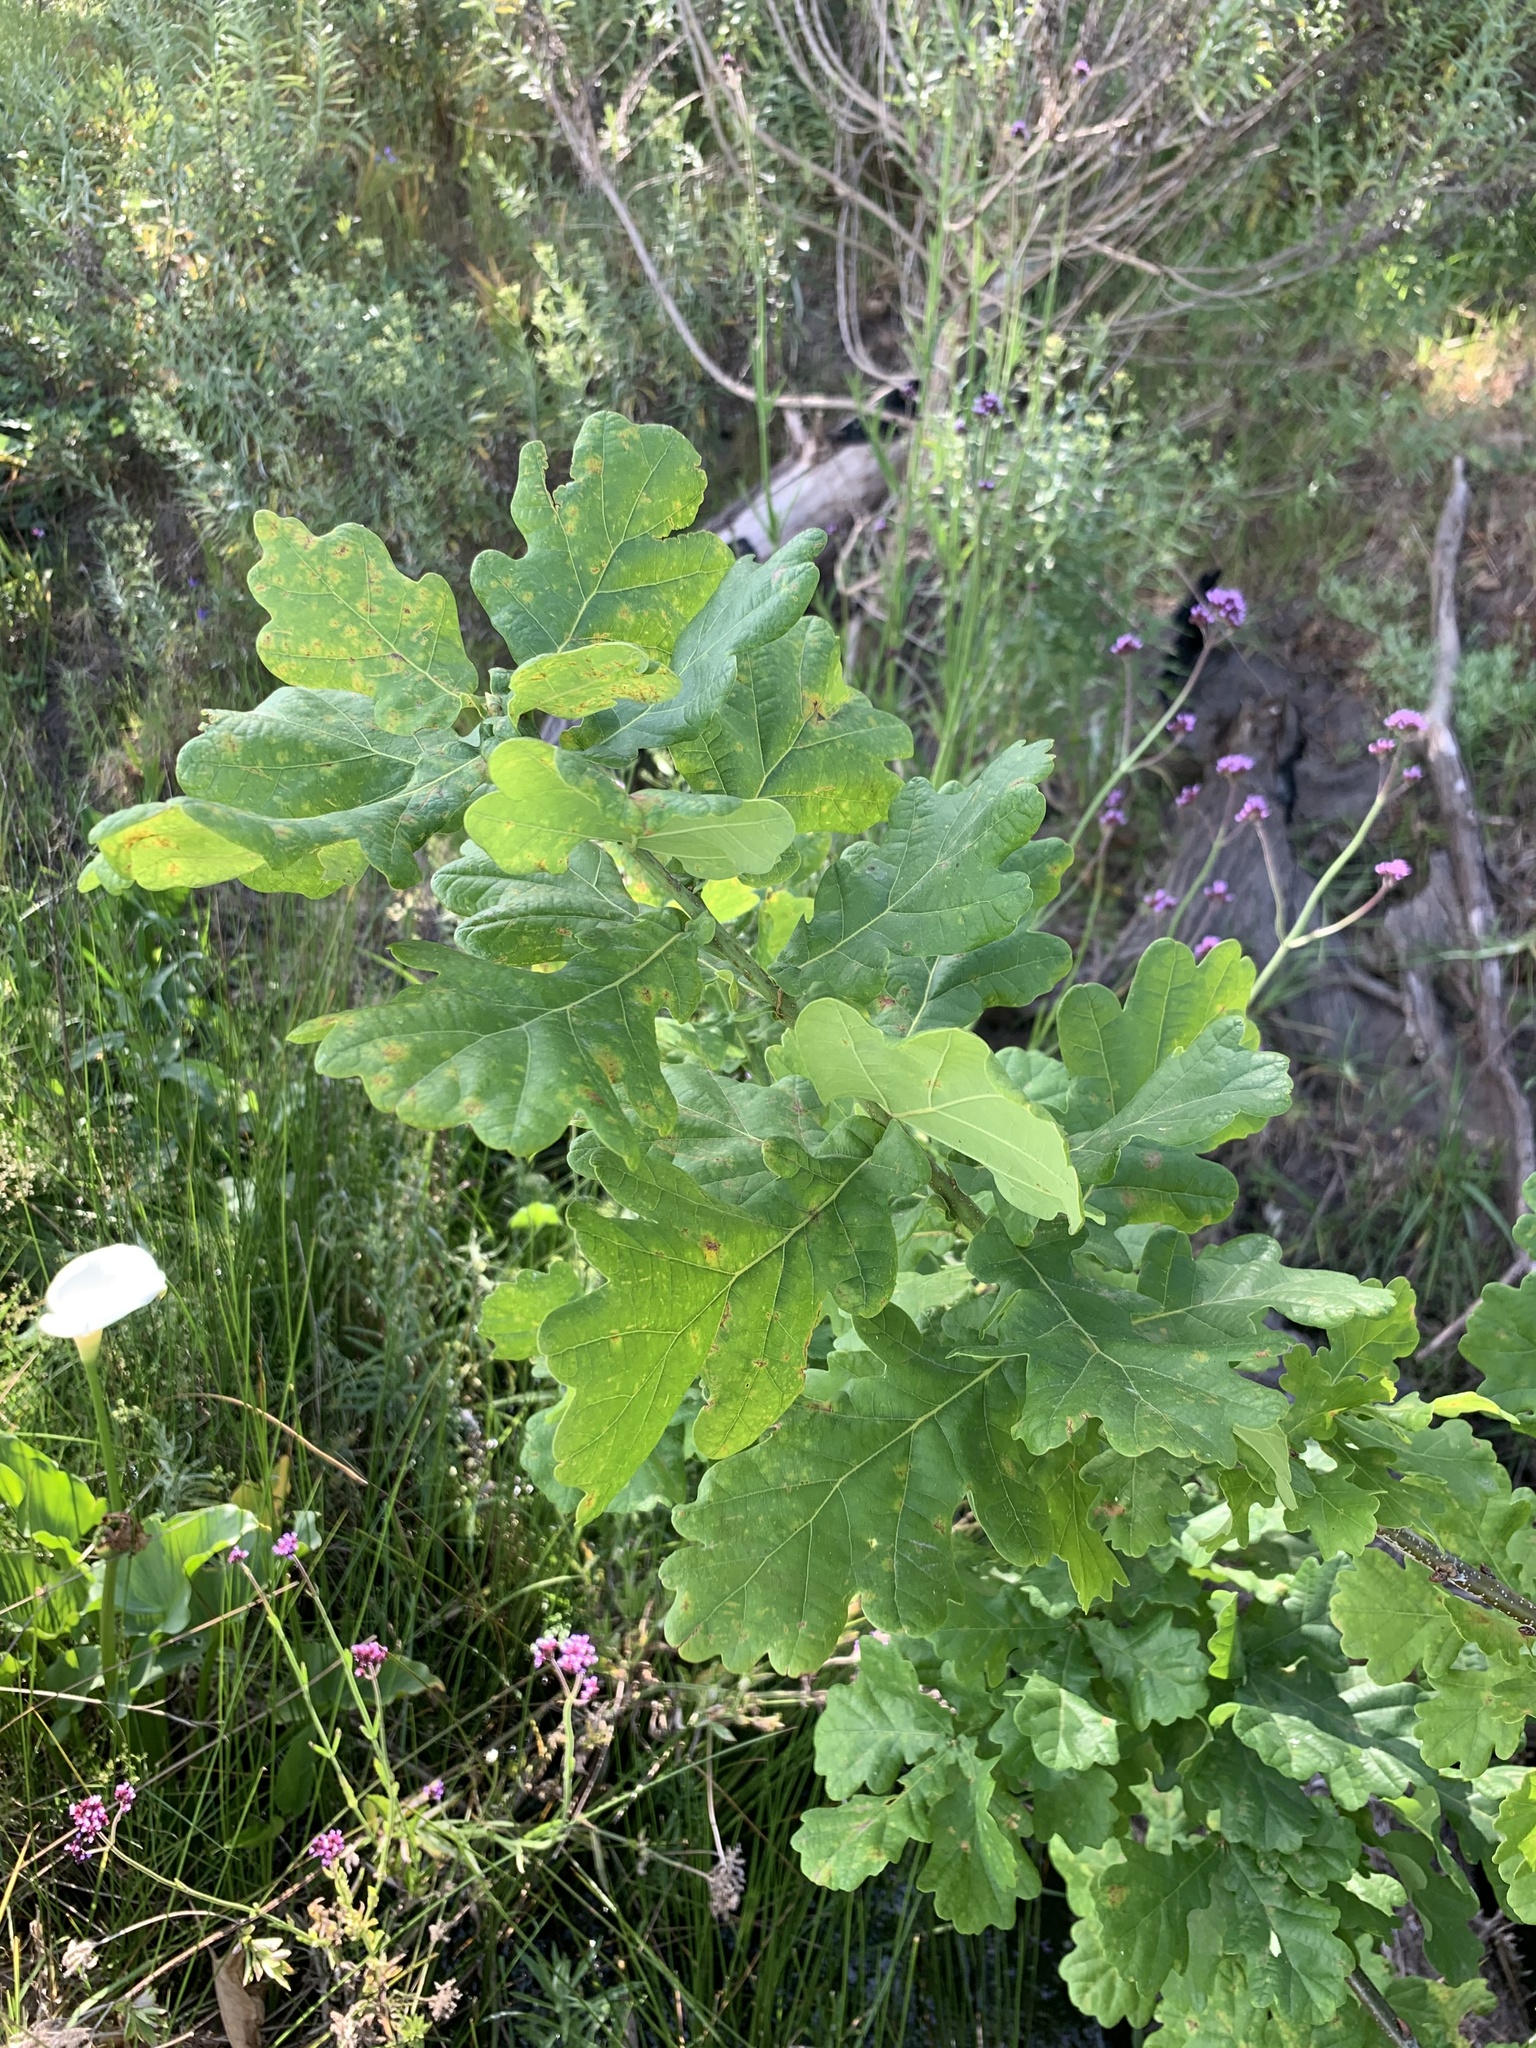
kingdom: Plantae
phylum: Tracheophyta
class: Magnoliopsida
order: Fagales
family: Fagaceae
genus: Quercus
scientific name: Quercus robur
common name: Pedunculate oak
